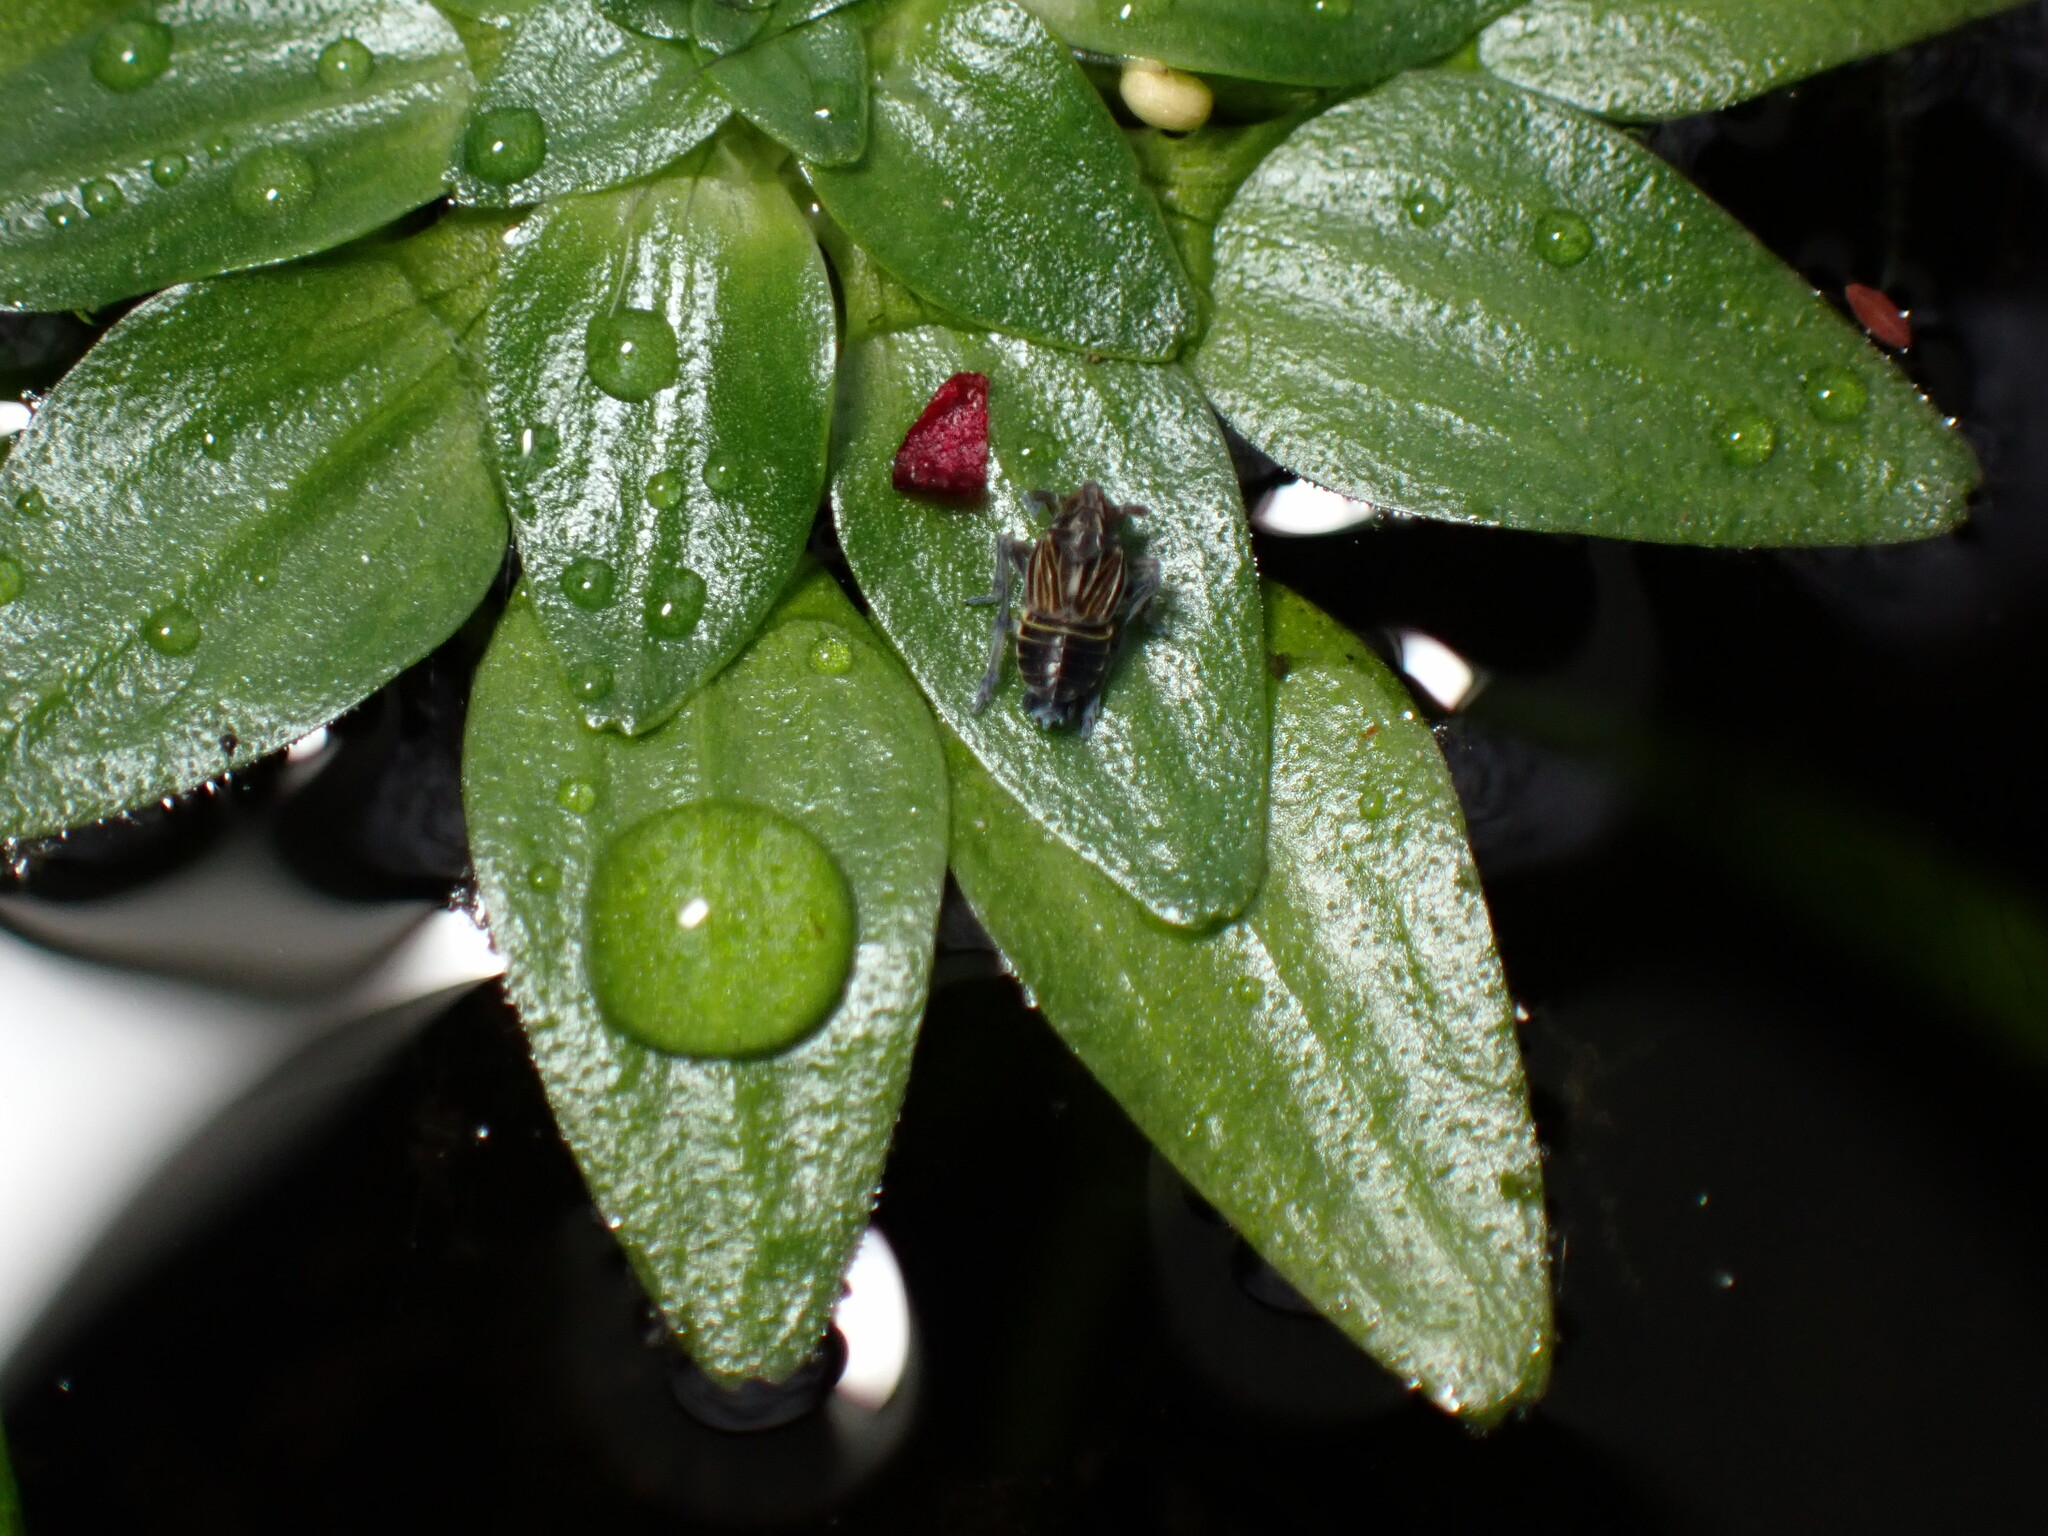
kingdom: Animalia
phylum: Arthropoda
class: Insecta
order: Hemiptera
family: Delphacidae
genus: Megamelus
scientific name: Megamelus davisi
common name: Planthopper
